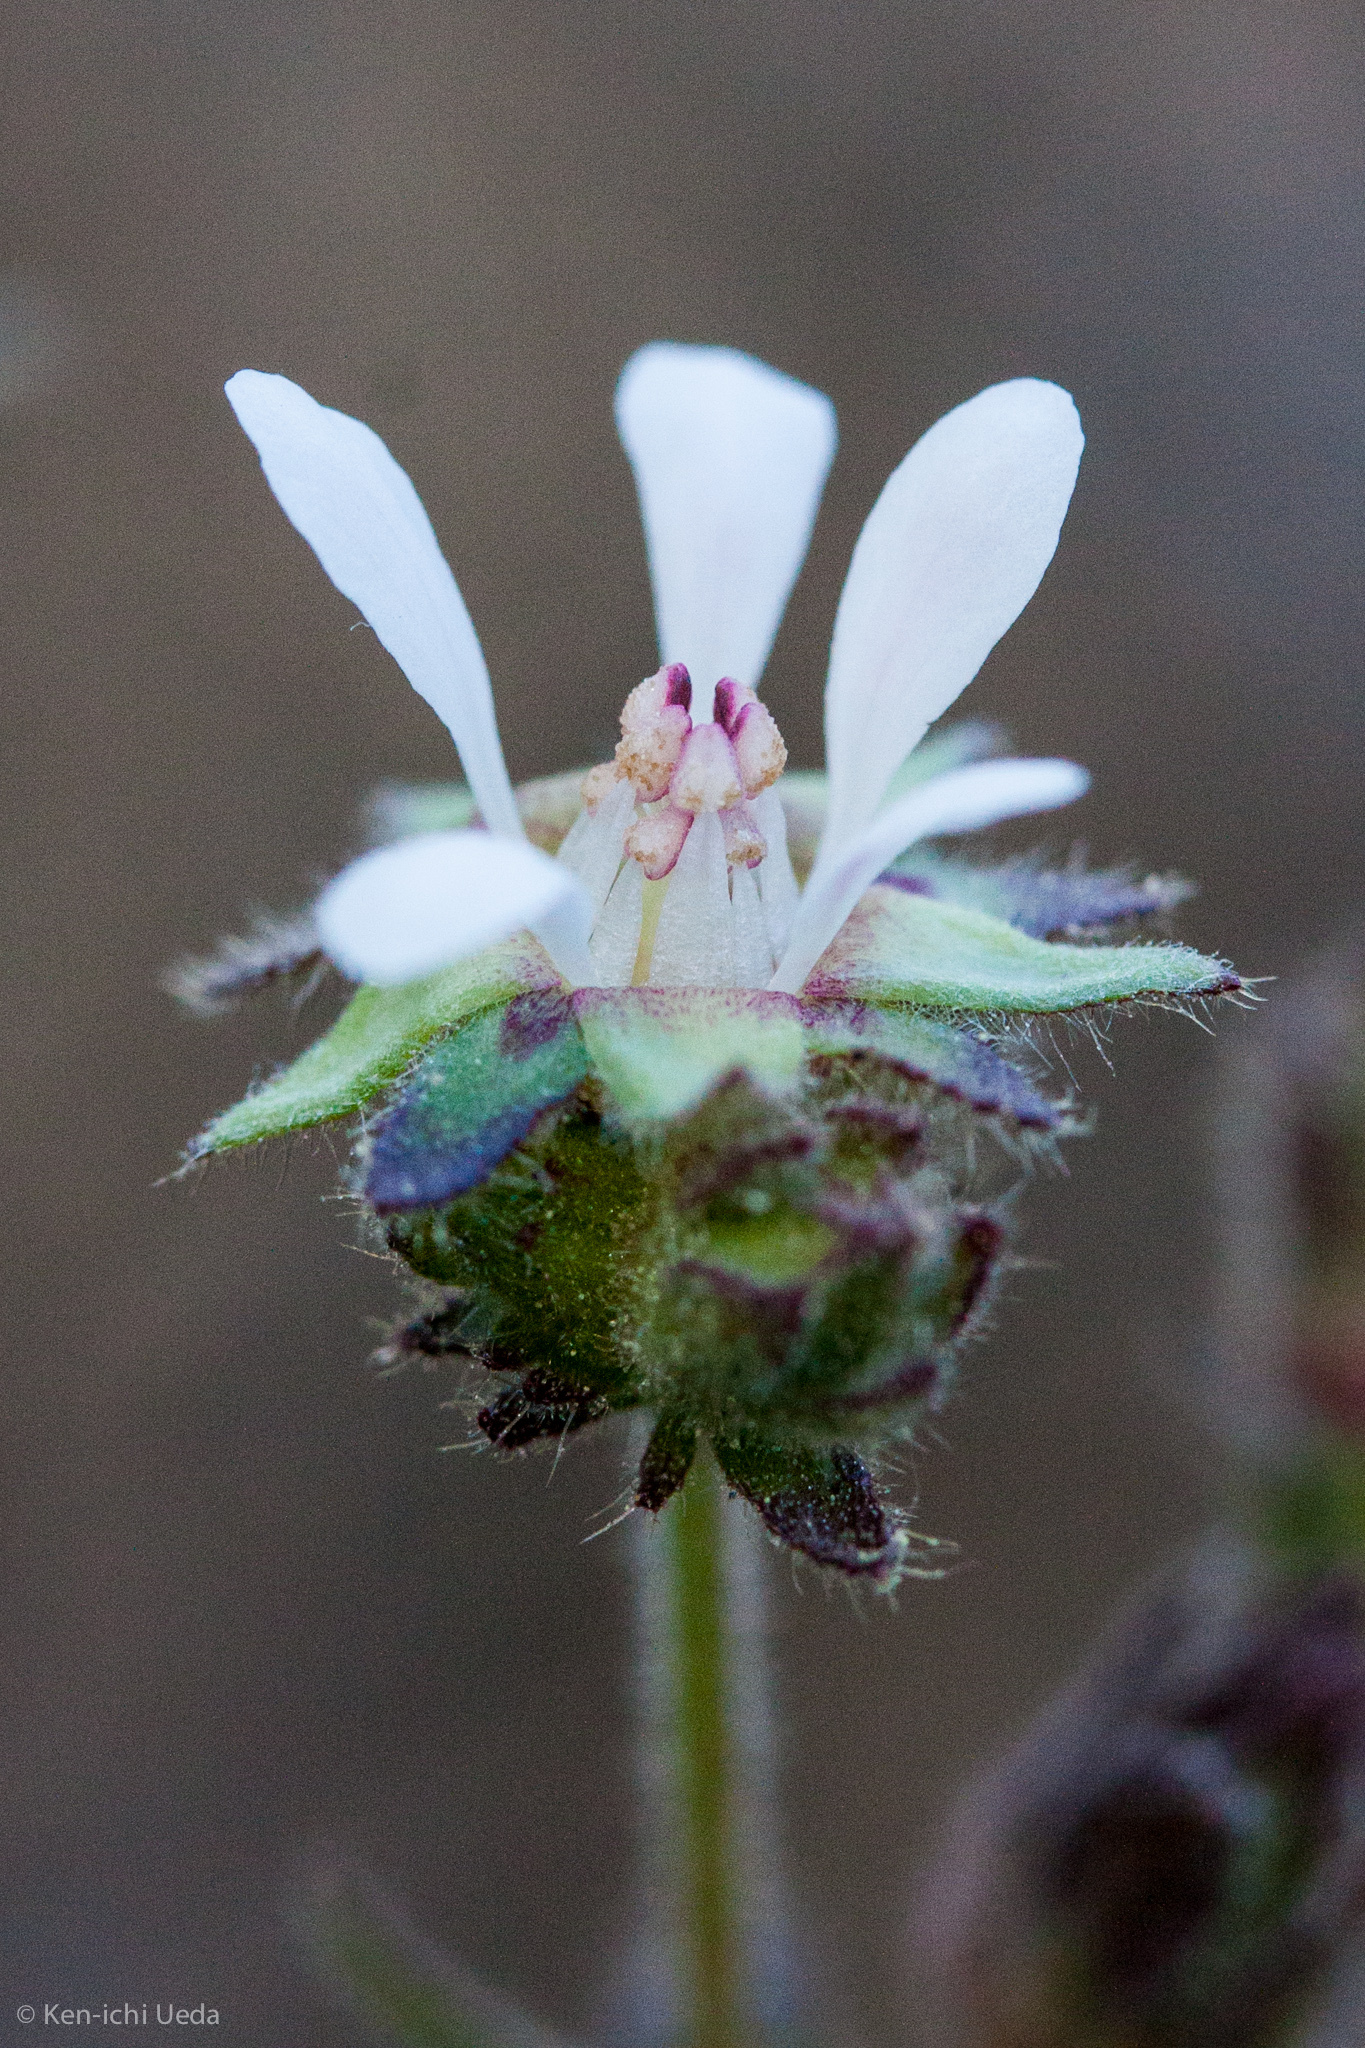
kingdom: Plantae
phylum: Tracheophyta
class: Magnoliopsida
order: Rosales
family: Rosaceae
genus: Potentilla
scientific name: Potentilla
